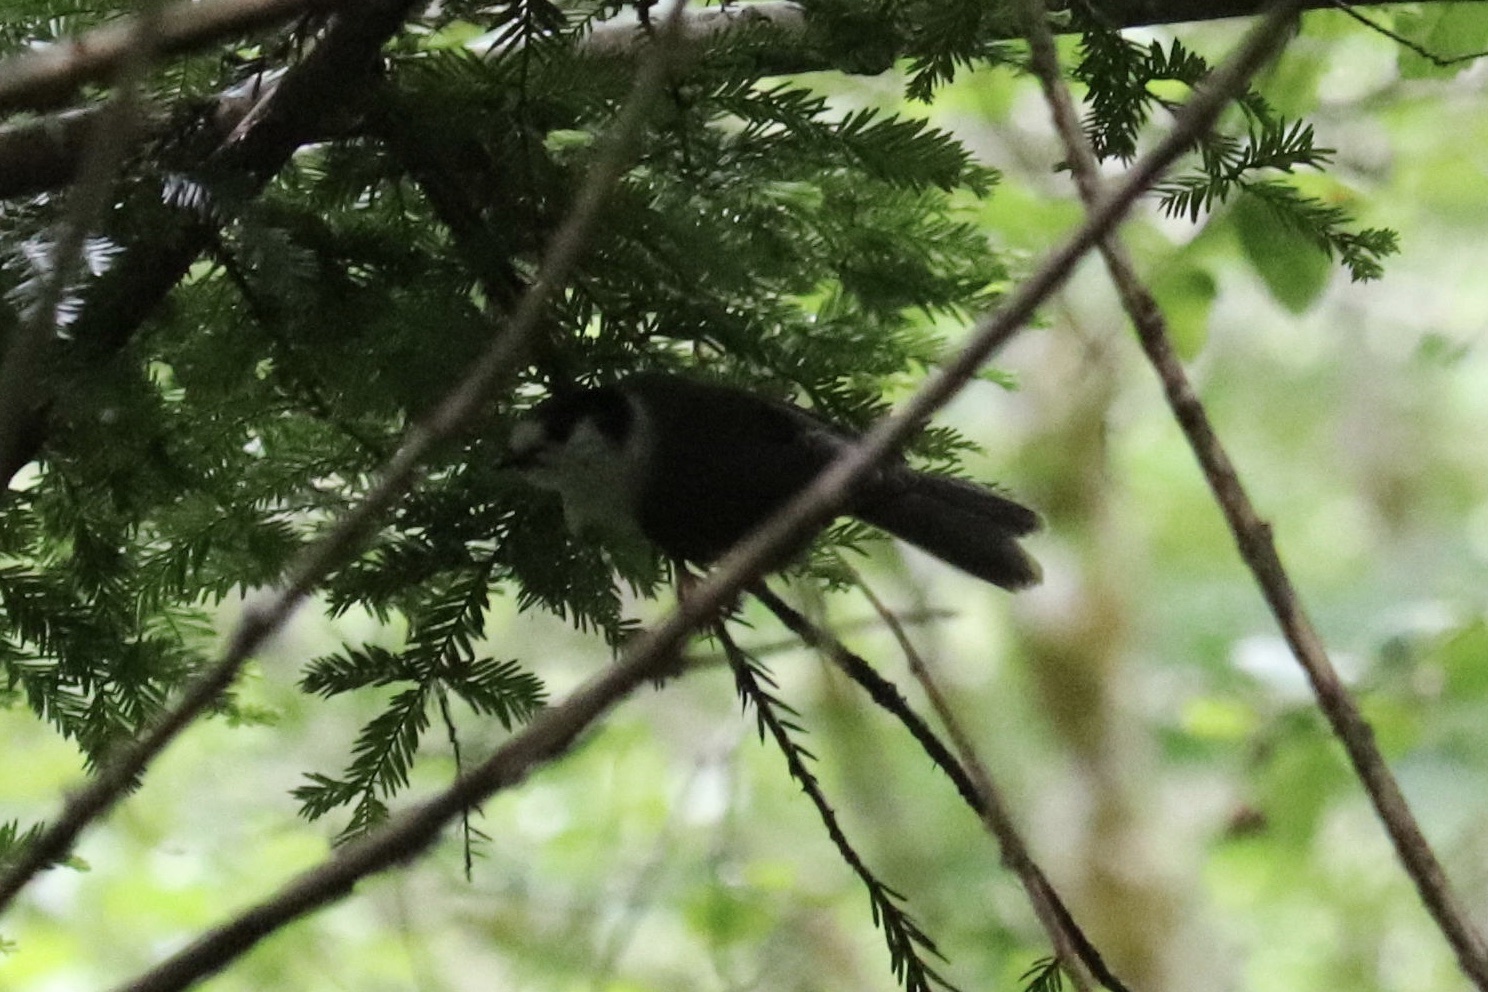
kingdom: Animalia
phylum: Chordata
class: Aves
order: Passeriformes
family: Corvidae
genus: Perisoreus
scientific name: Perisoreus canadensis
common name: Gray jay
